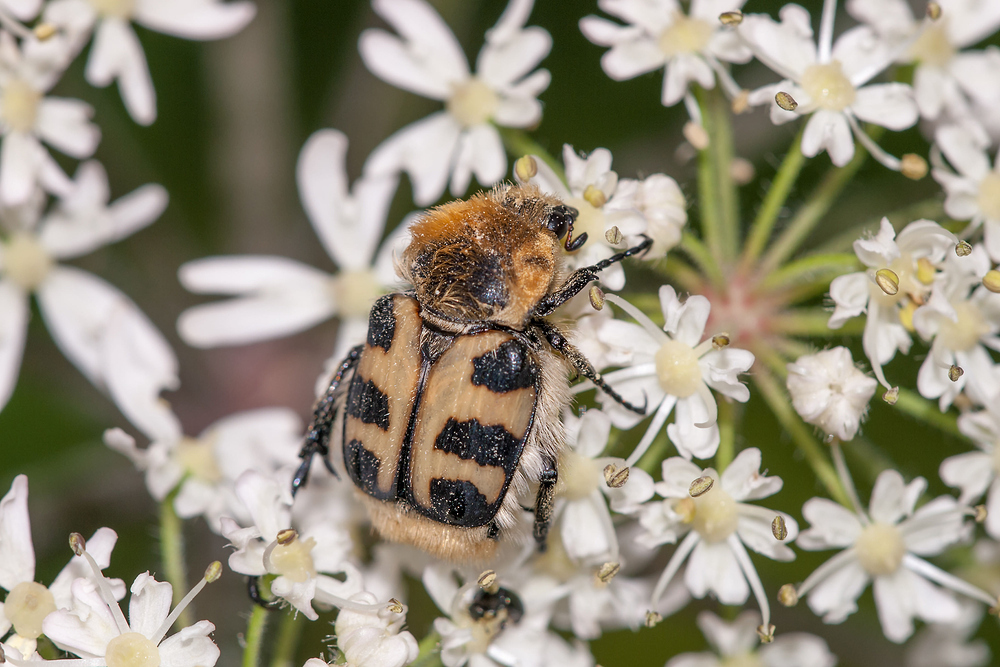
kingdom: Animalia
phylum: Arthropoda
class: Insecta
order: Coleoptera
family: Scarabaeidae
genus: Trichius
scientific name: Trichius gallicus
